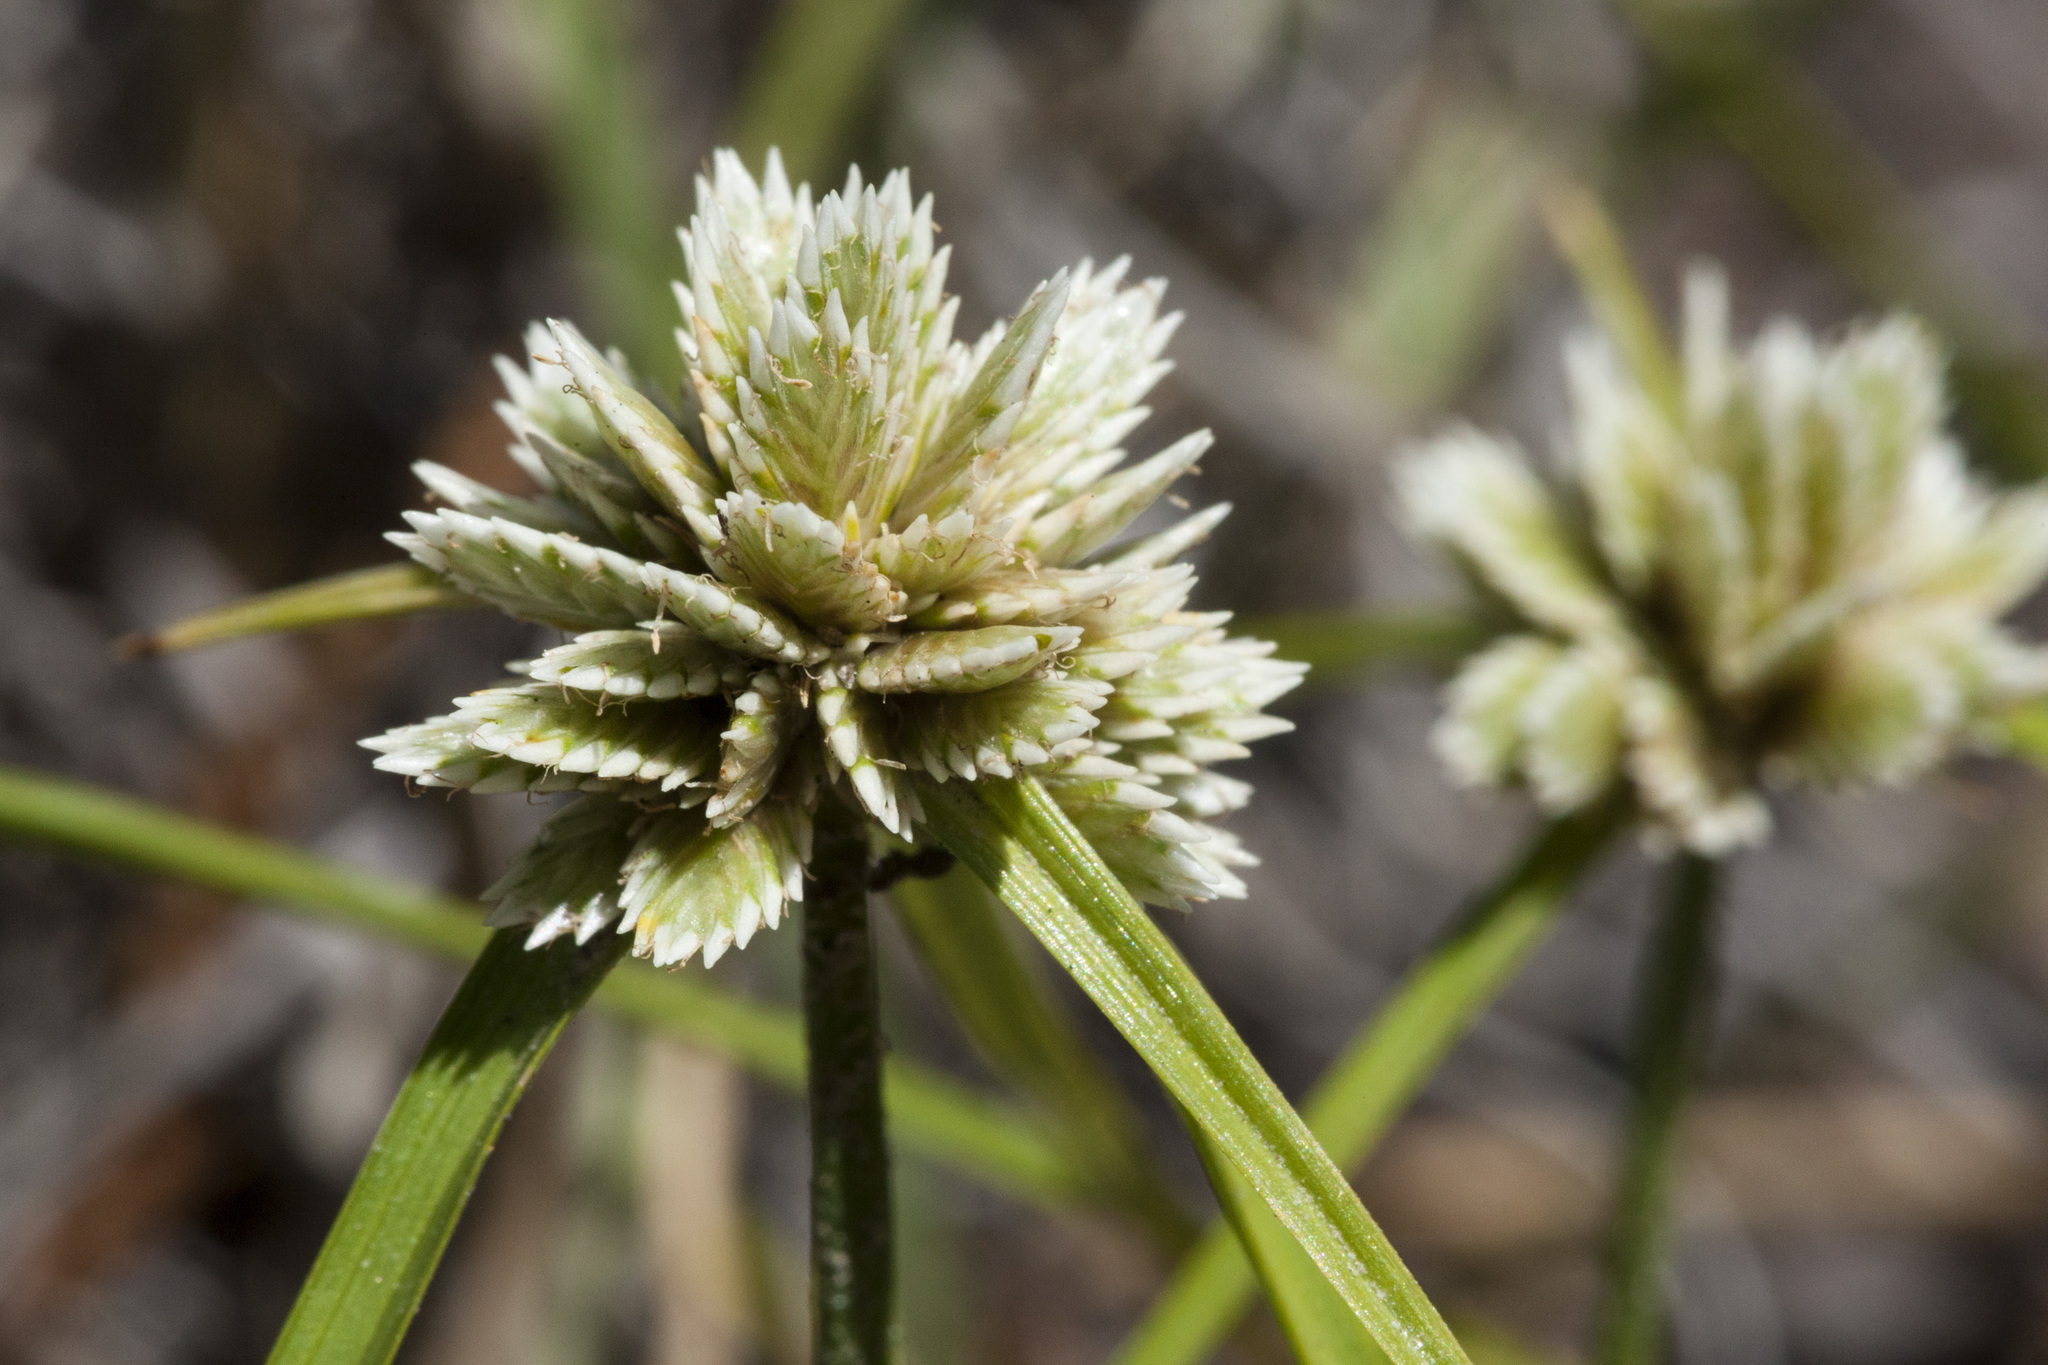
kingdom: Plantae
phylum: Tracheophyta
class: Liliopsida
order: Poales
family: Cyperaceae
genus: Cyperus
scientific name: Cyperus seslerioides
